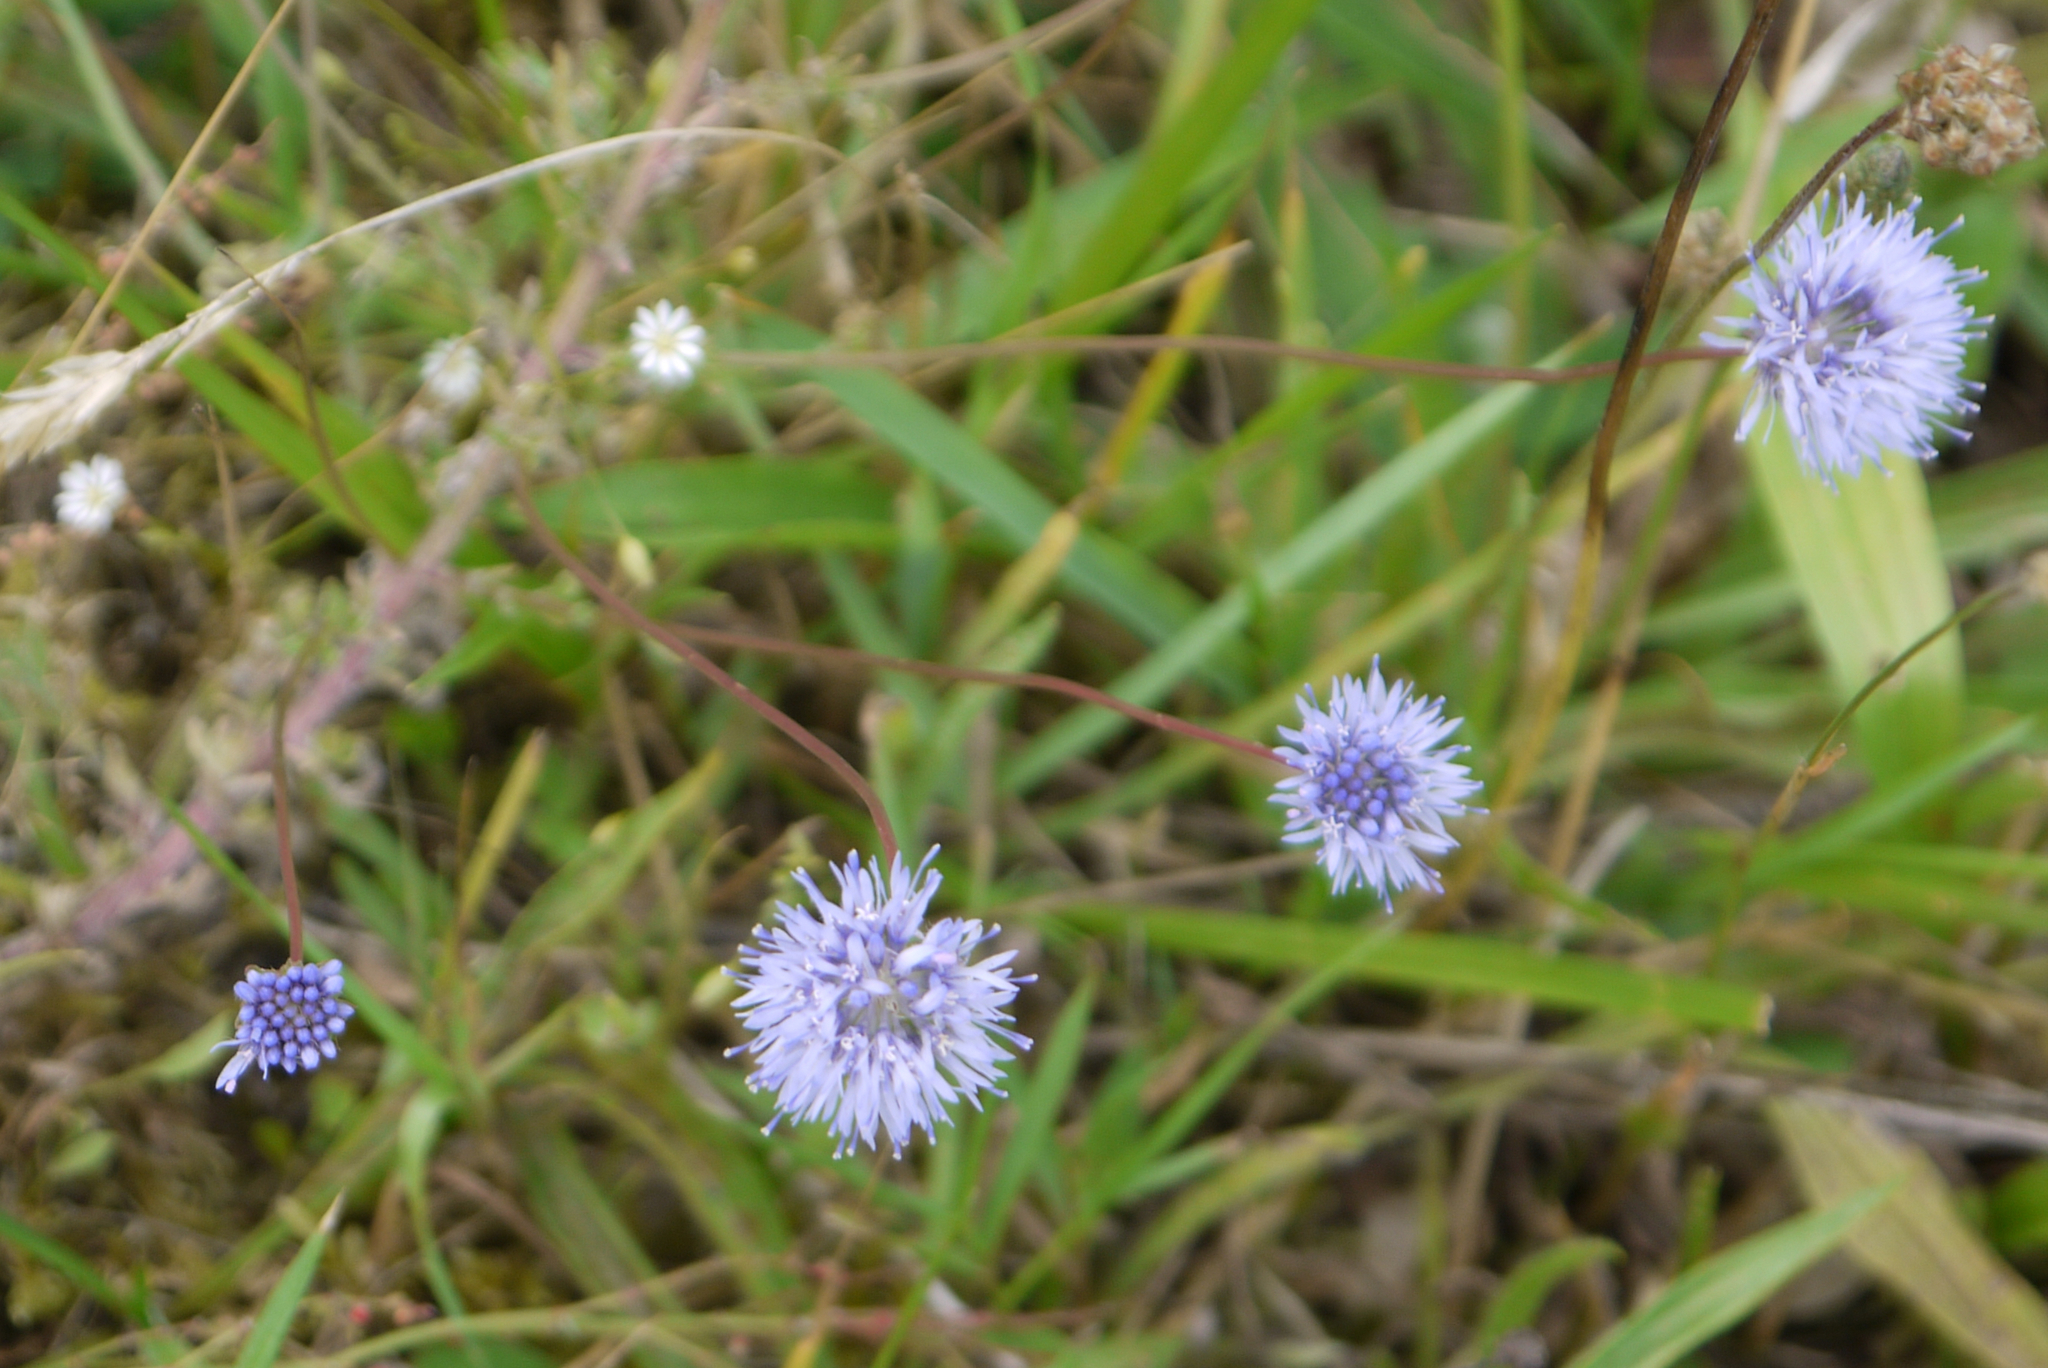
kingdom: Plantae
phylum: Tracheophyta
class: Magnoliopsida
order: Asterales
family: Campanulaceae
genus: Jasione
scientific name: Jasione montana
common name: Sheep's-bit
